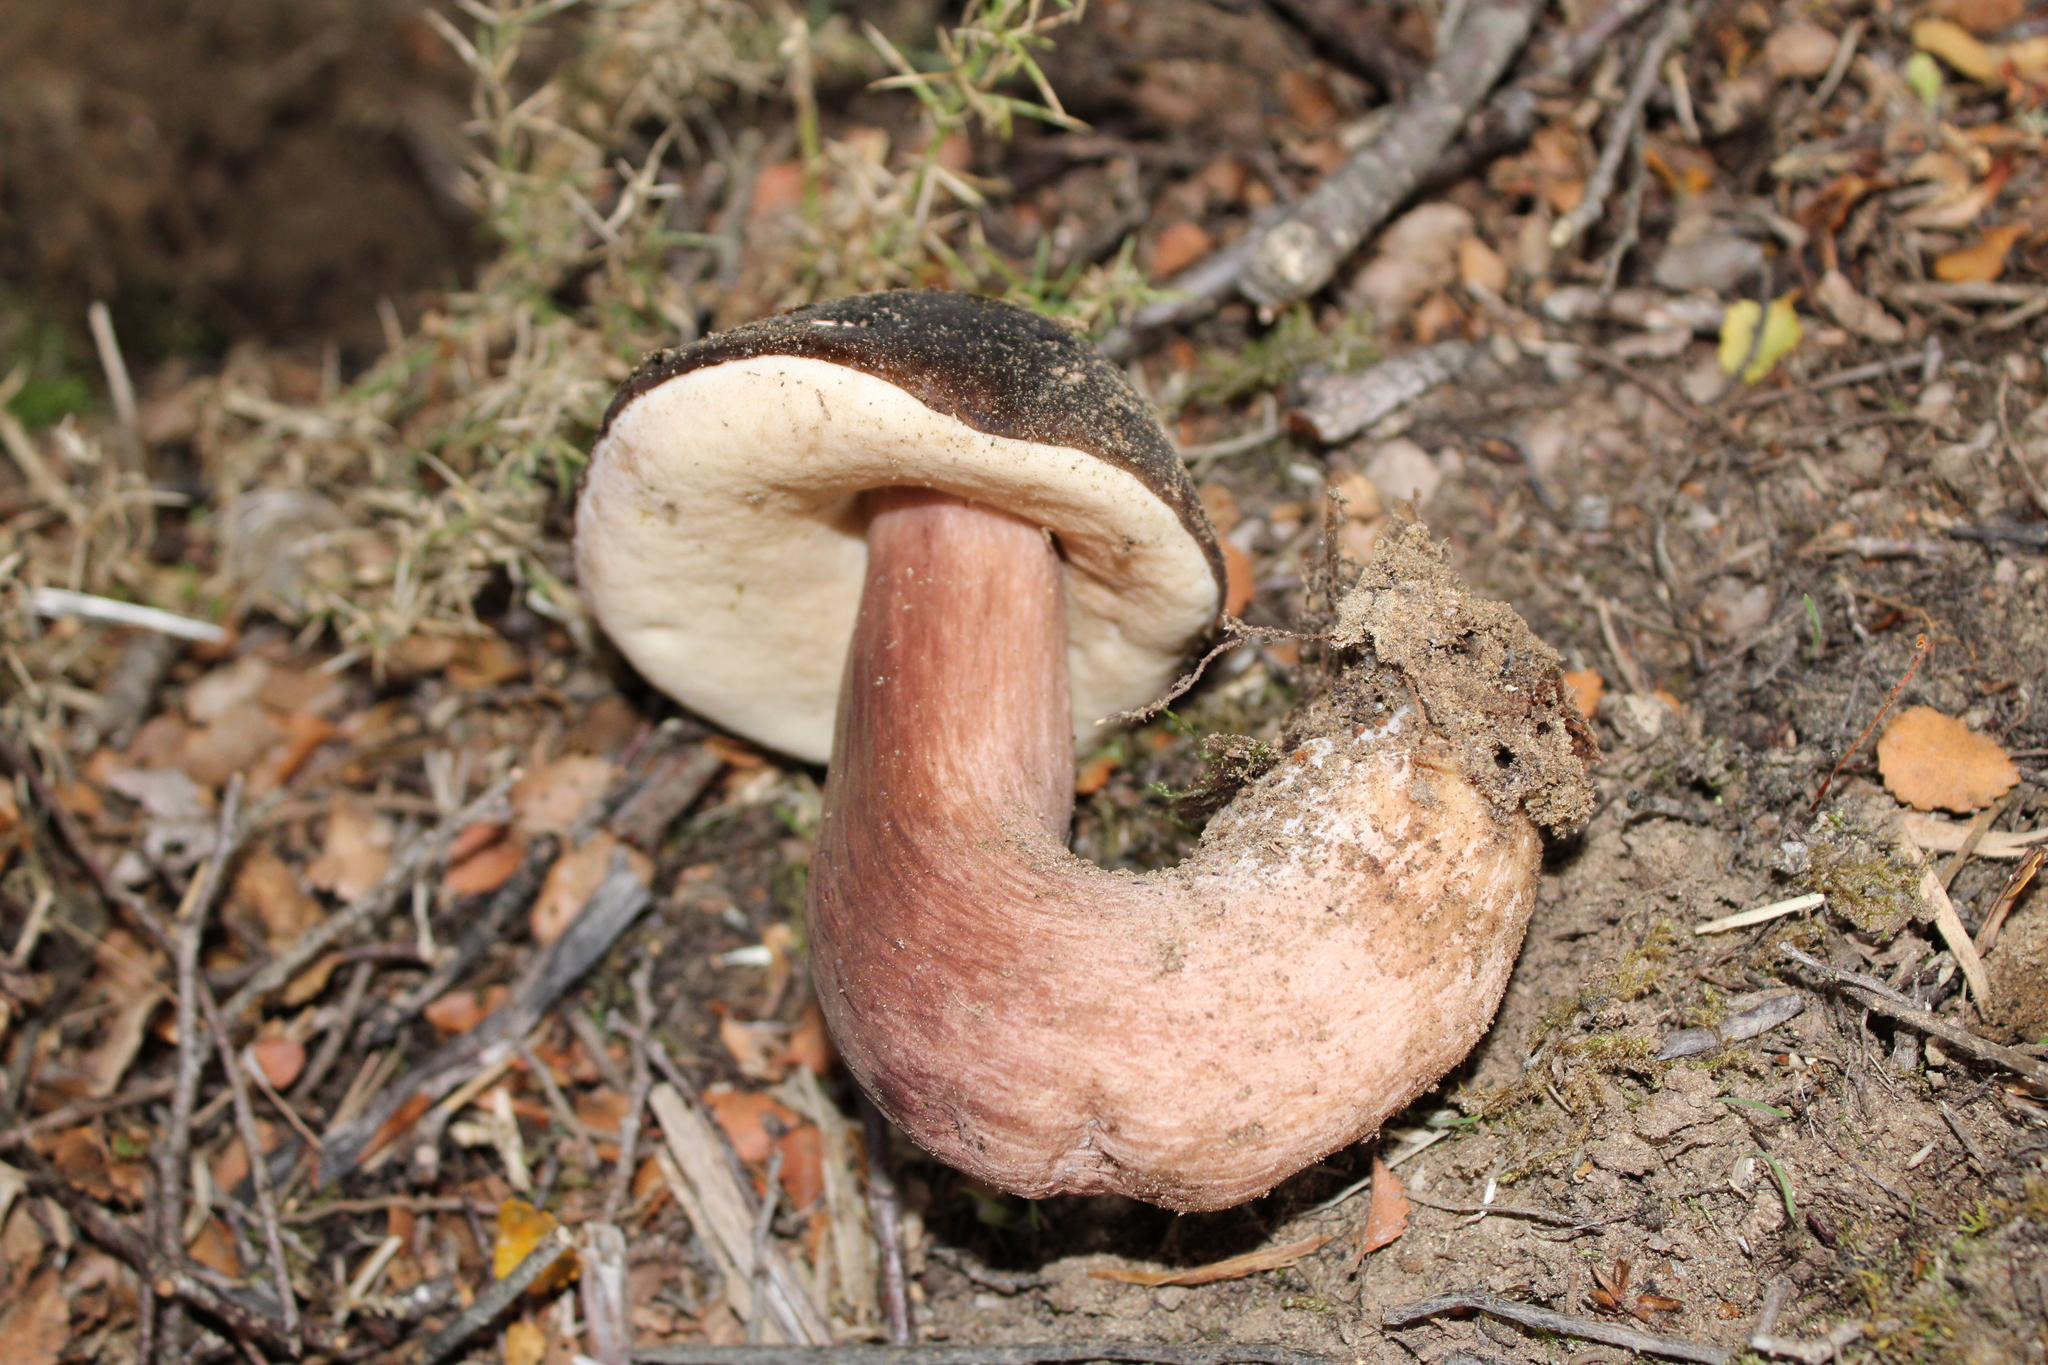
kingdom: Fungi
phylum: Basidiomycota
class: Agaricomycetes
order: Boletales
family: Boletaceae
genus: Porphyrellus
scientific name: Porphyrellus formosus
